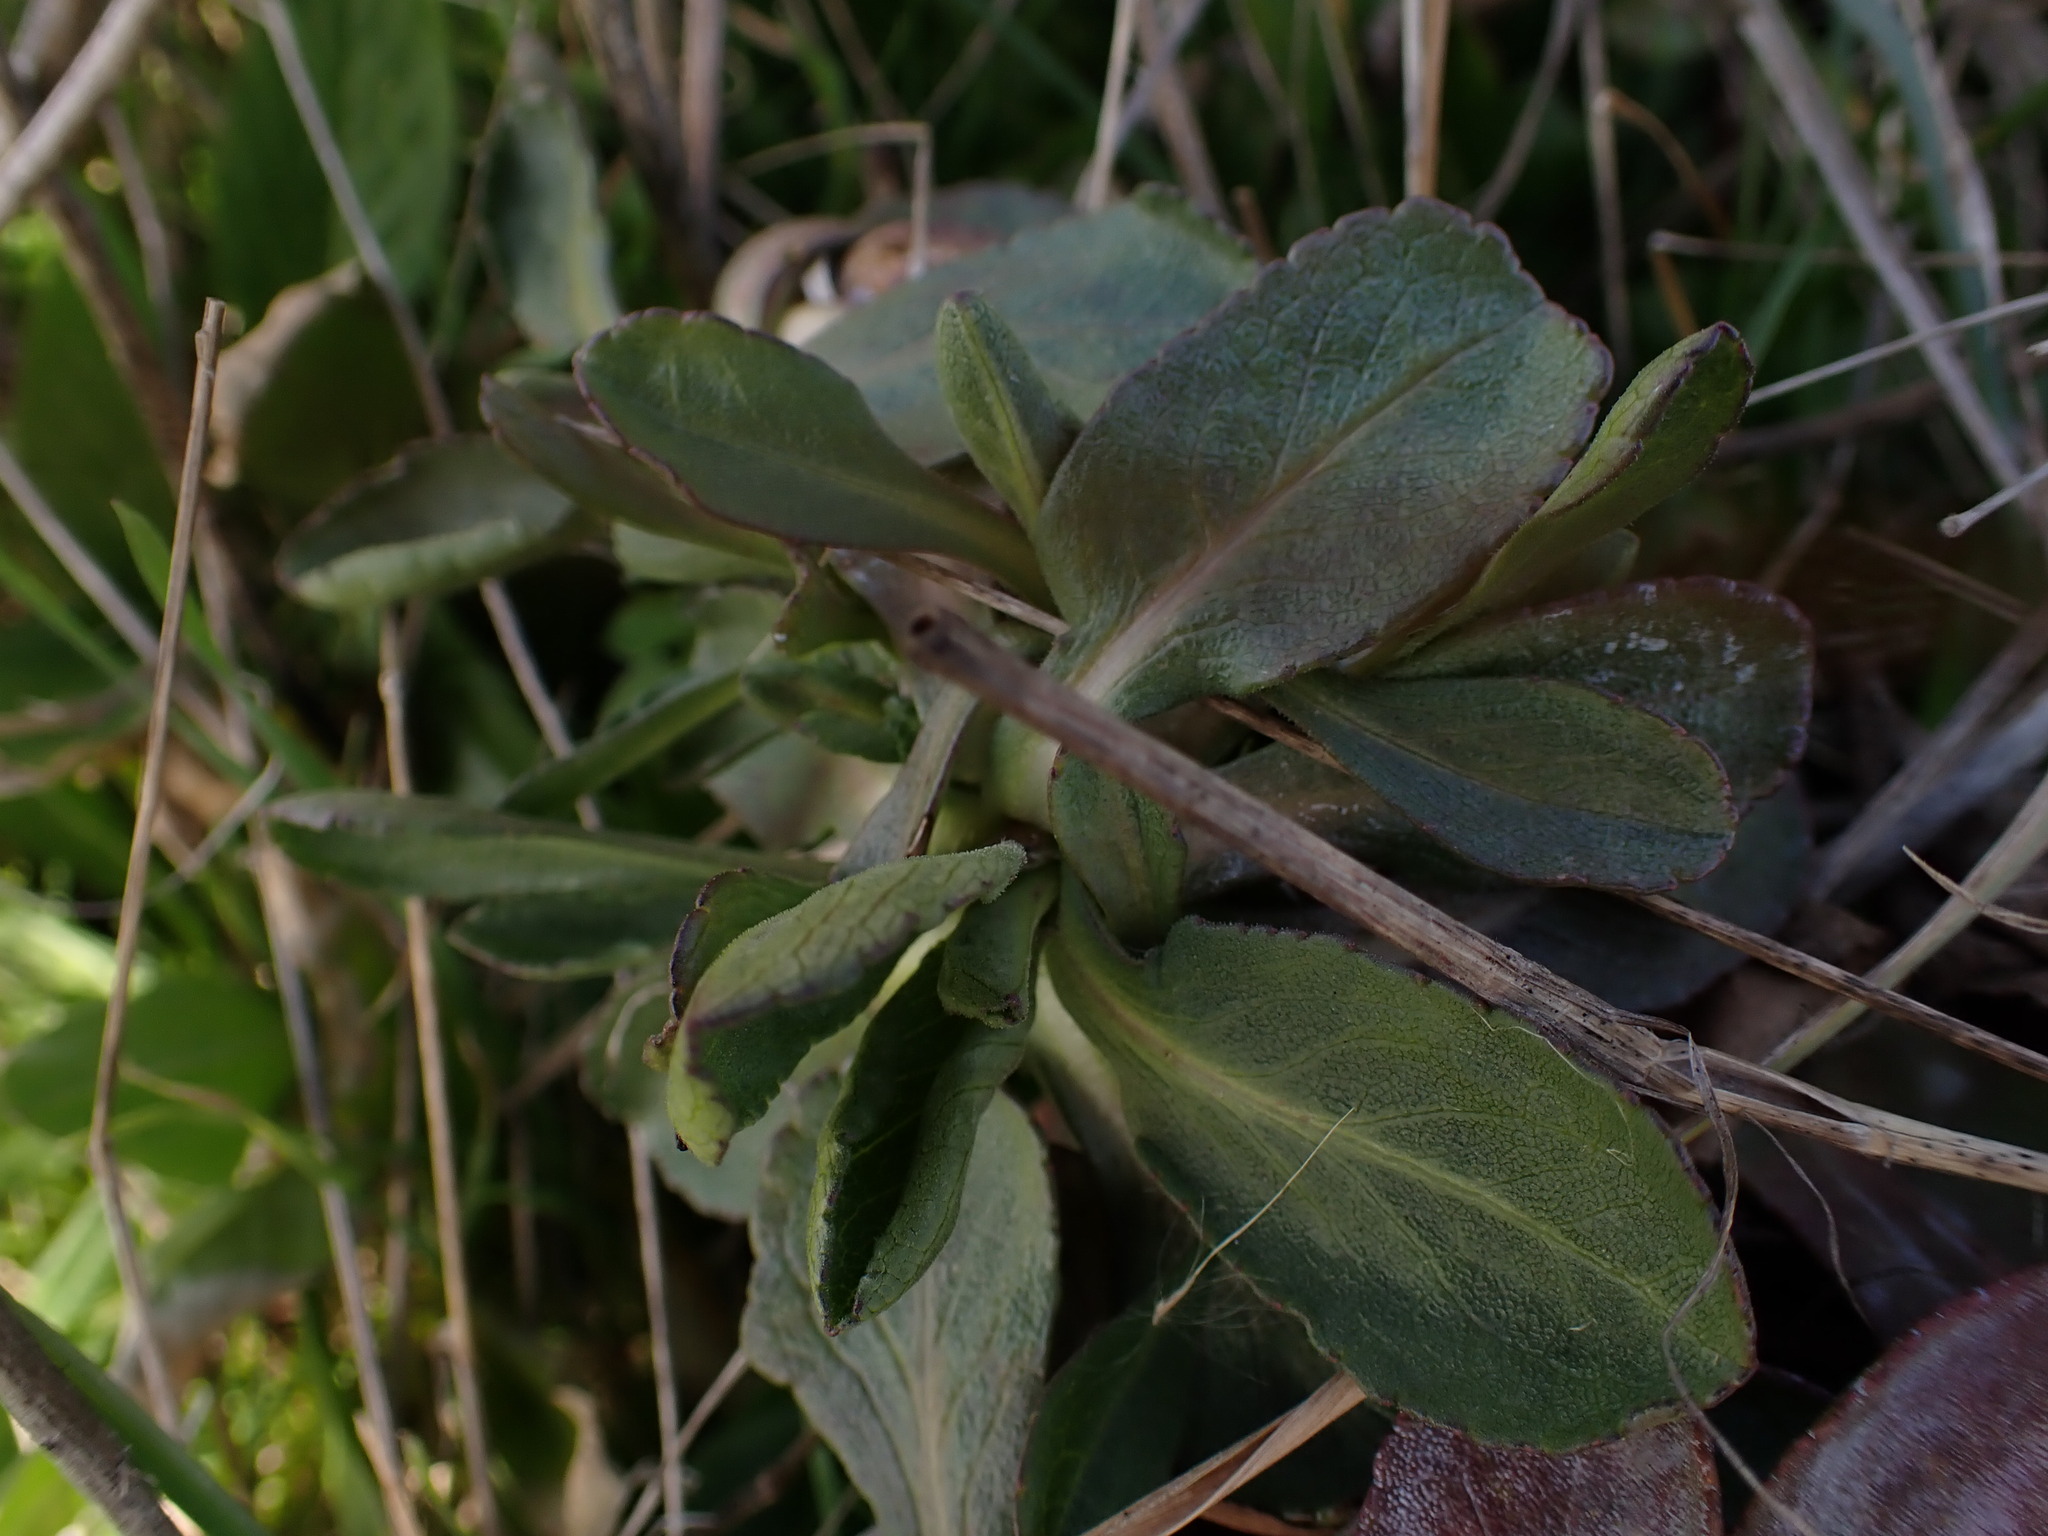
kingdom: Plantae
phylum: Tracheophyta
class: Magnoliopsida
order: Asterales
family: Asteraceae
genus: Grindelia
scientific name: Grindelia hirsutula
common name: Hairy gumweed
